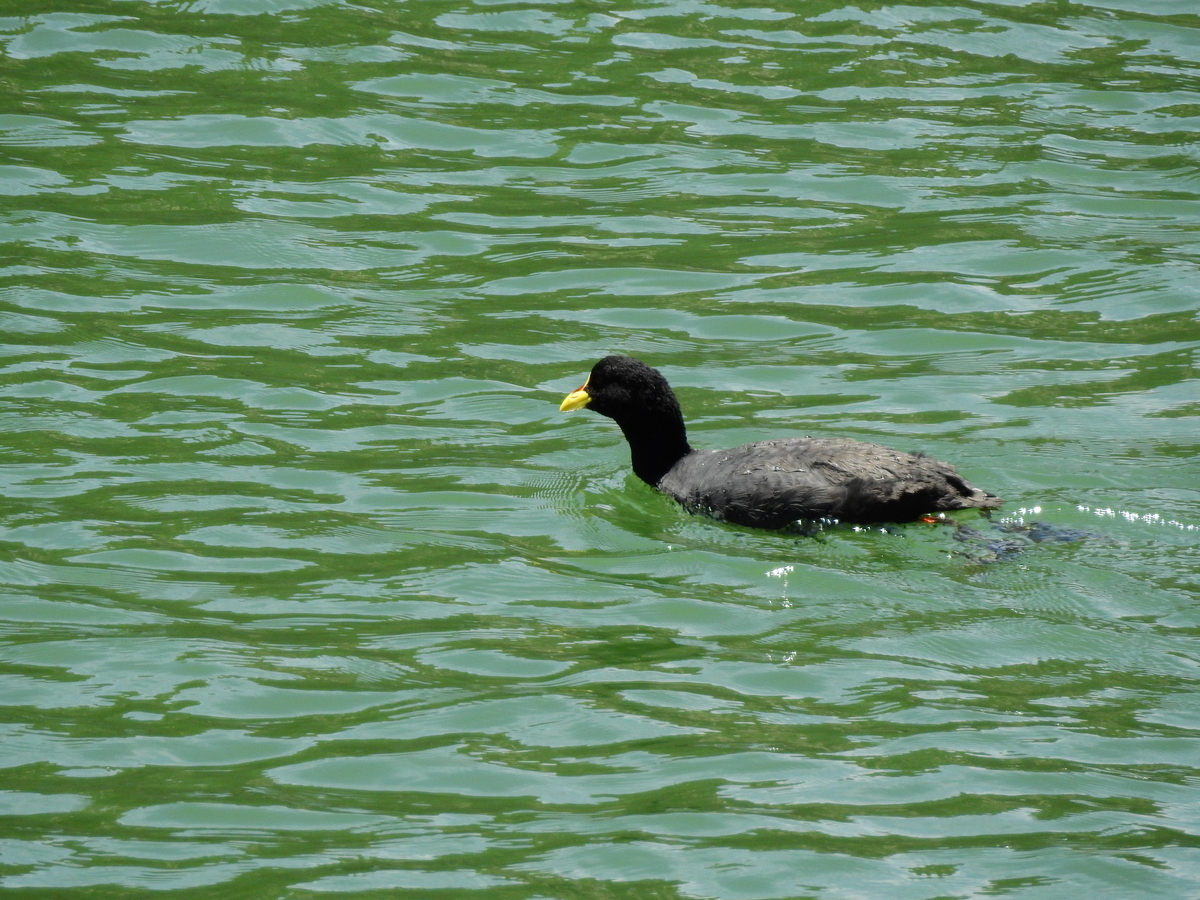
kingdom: Animalia
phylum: Chordata
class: Aves
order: Gruiformes
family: Rallidae
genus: Fulica
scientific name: Fulica armillata
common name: Red-gartered coot
